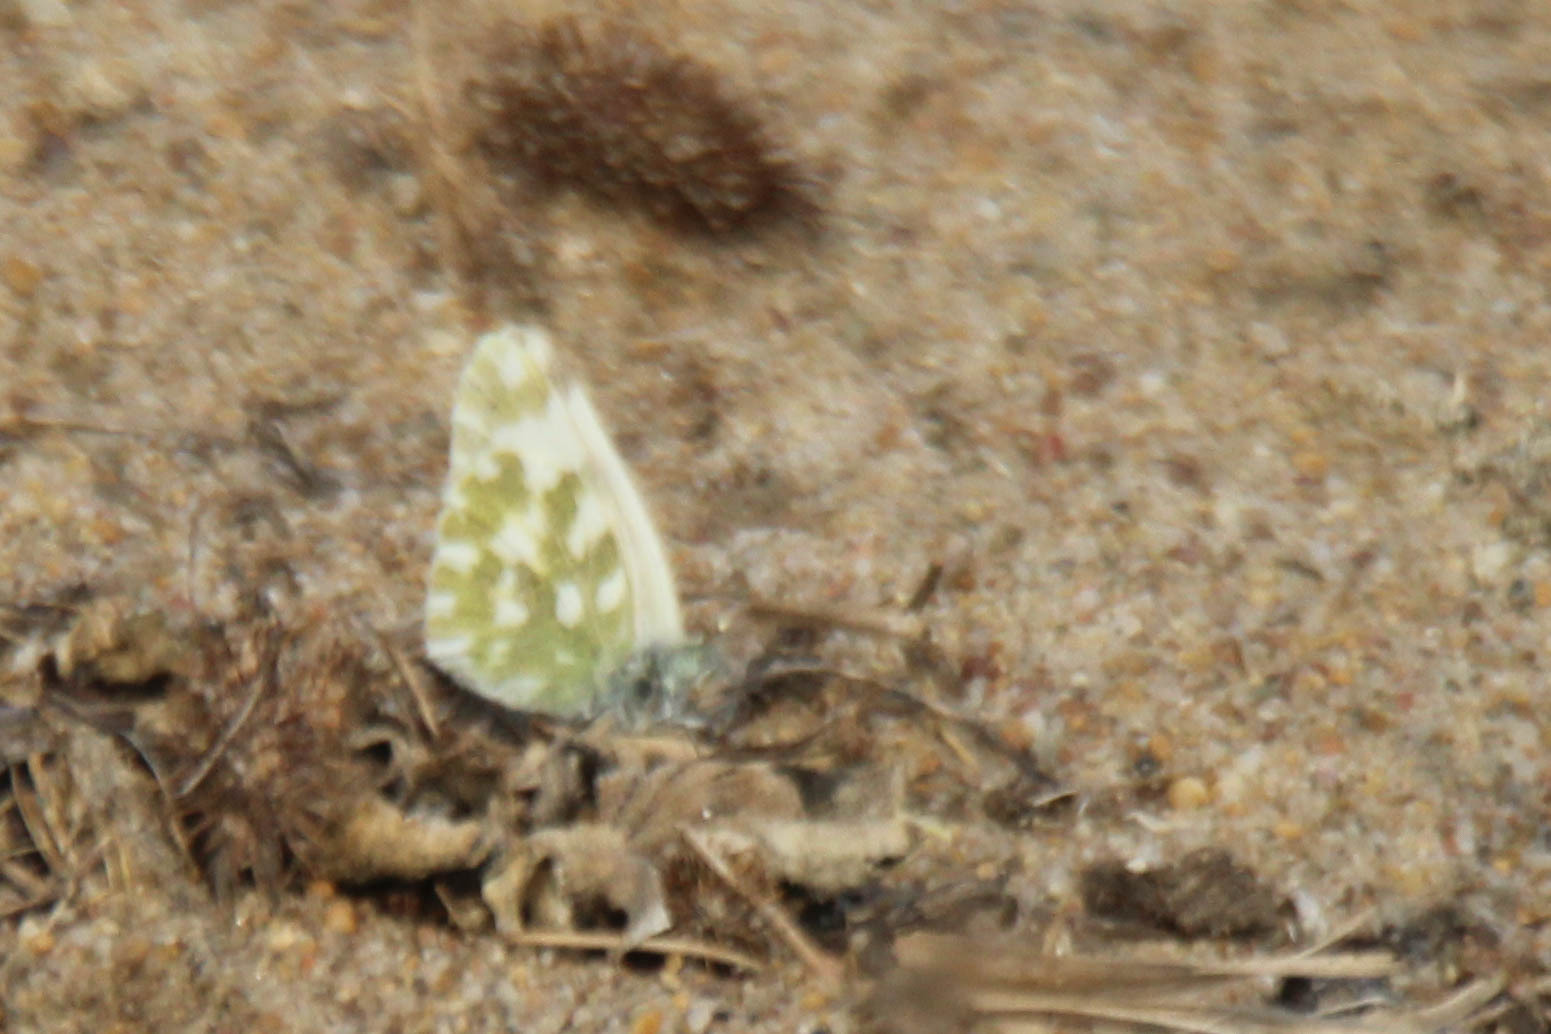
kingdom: Animalia
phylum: Arthropoda
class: Insecta
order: Lepidoptera
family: Pieridae
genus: Pontia
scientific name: Pontia edusa
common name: Eastern bath white
